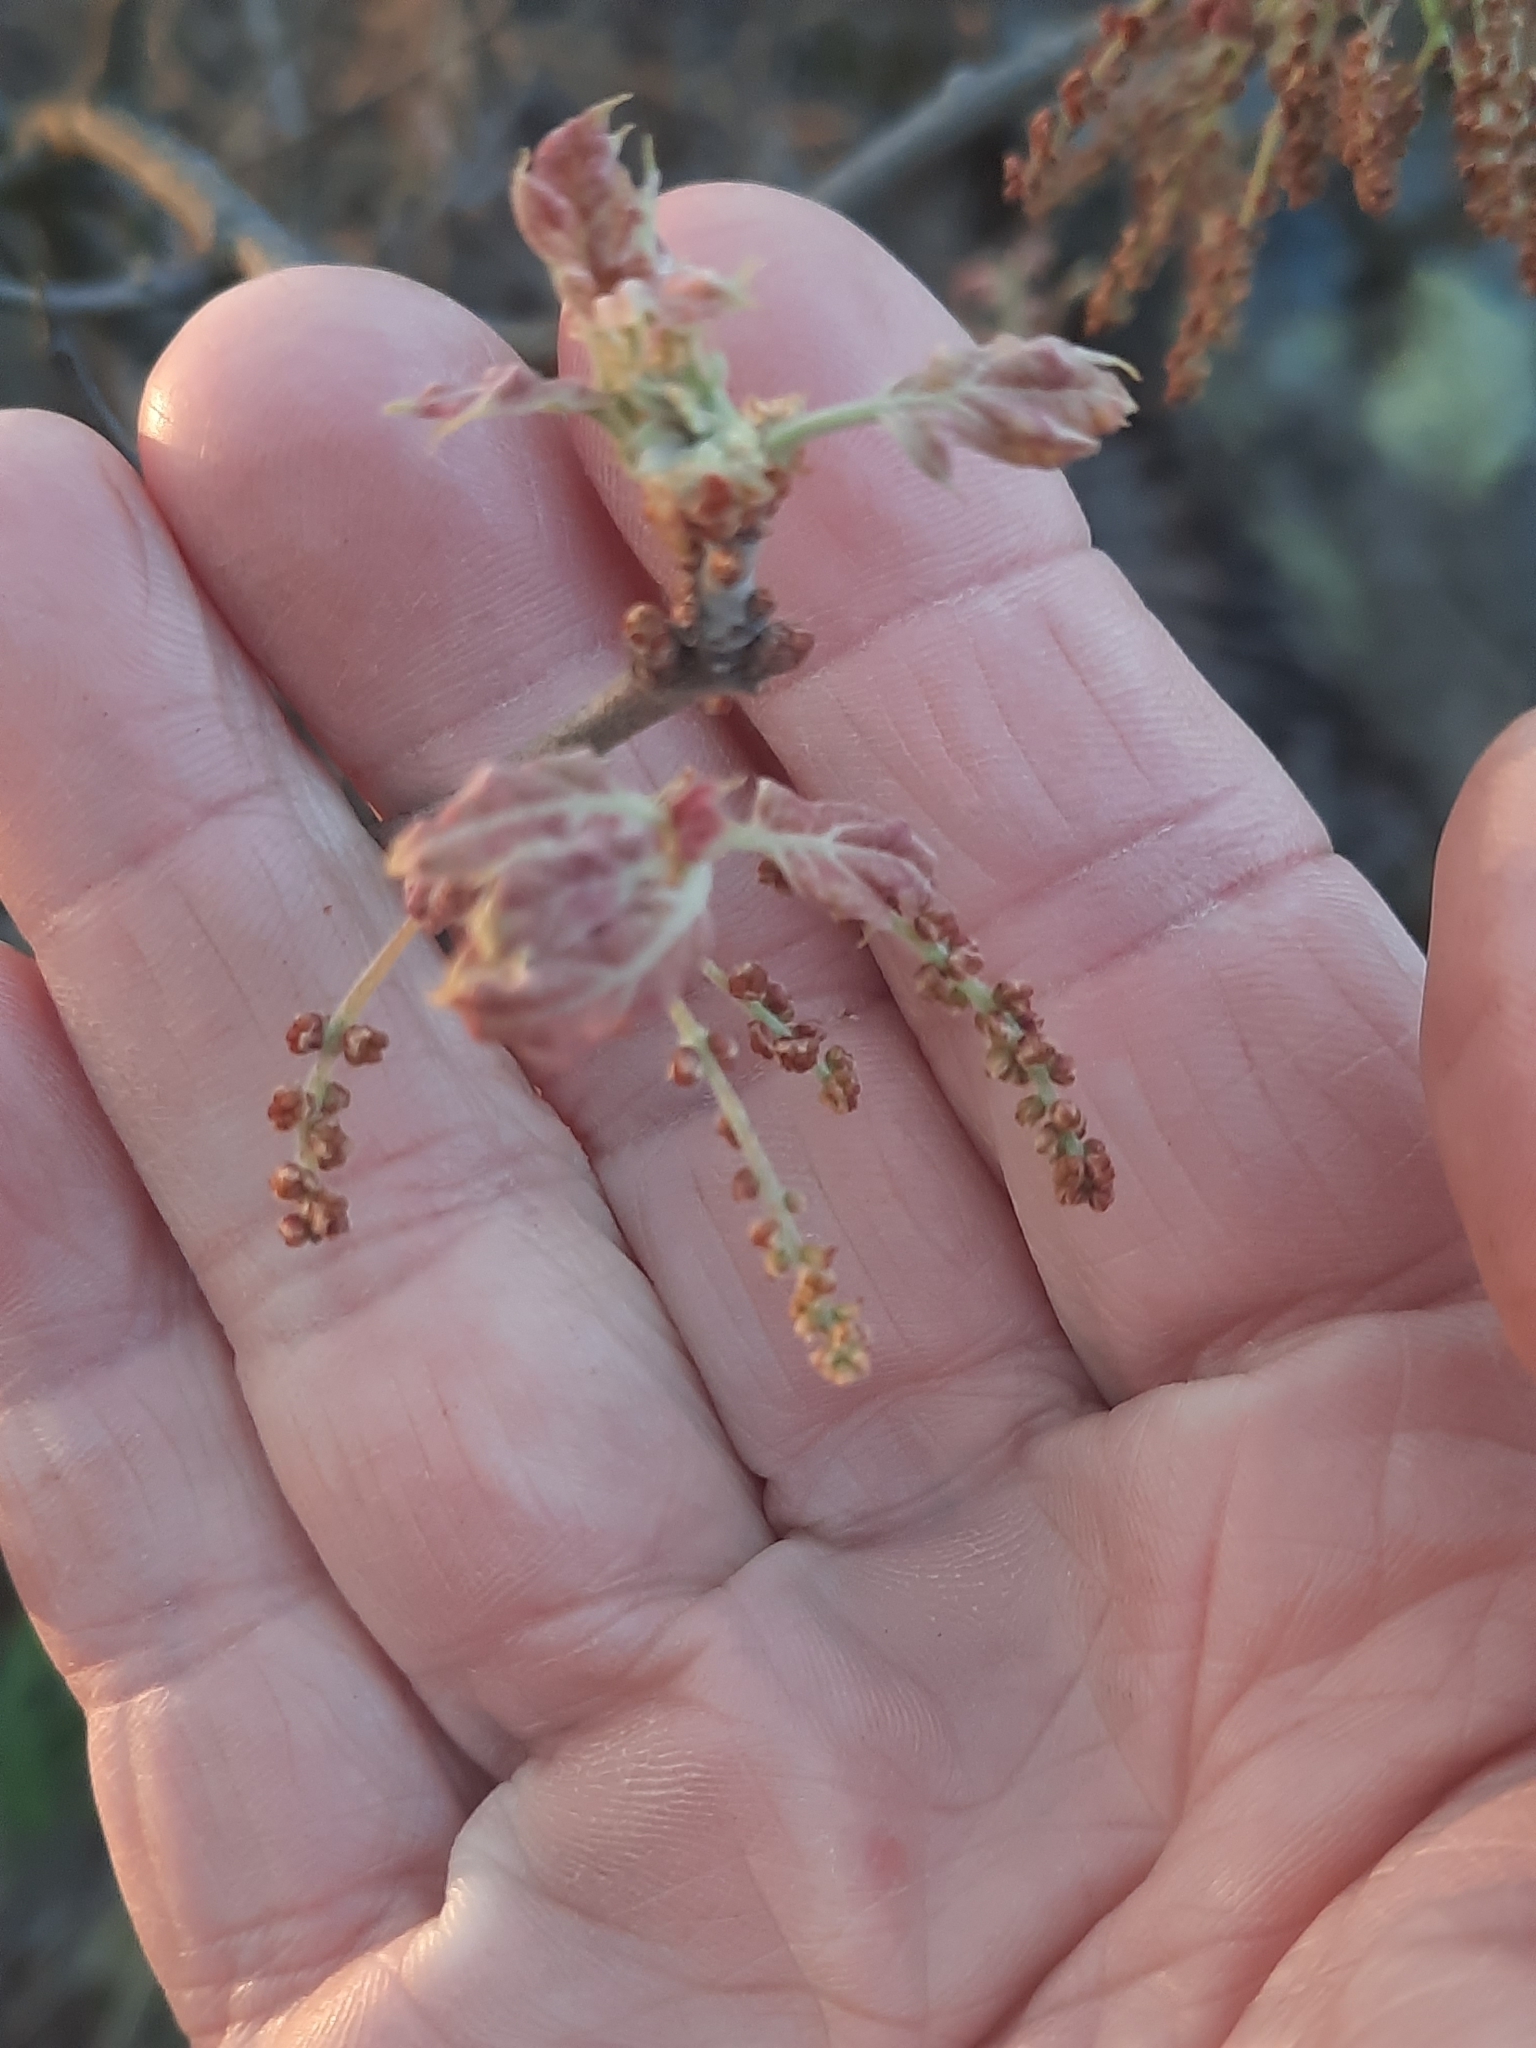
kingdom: Plantae
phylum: Tracheophyta
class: Magnoliopsida
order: Fagales
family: Fagaceae
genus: Quercus
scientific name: Quercus ilicifolia
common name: Bear oak
